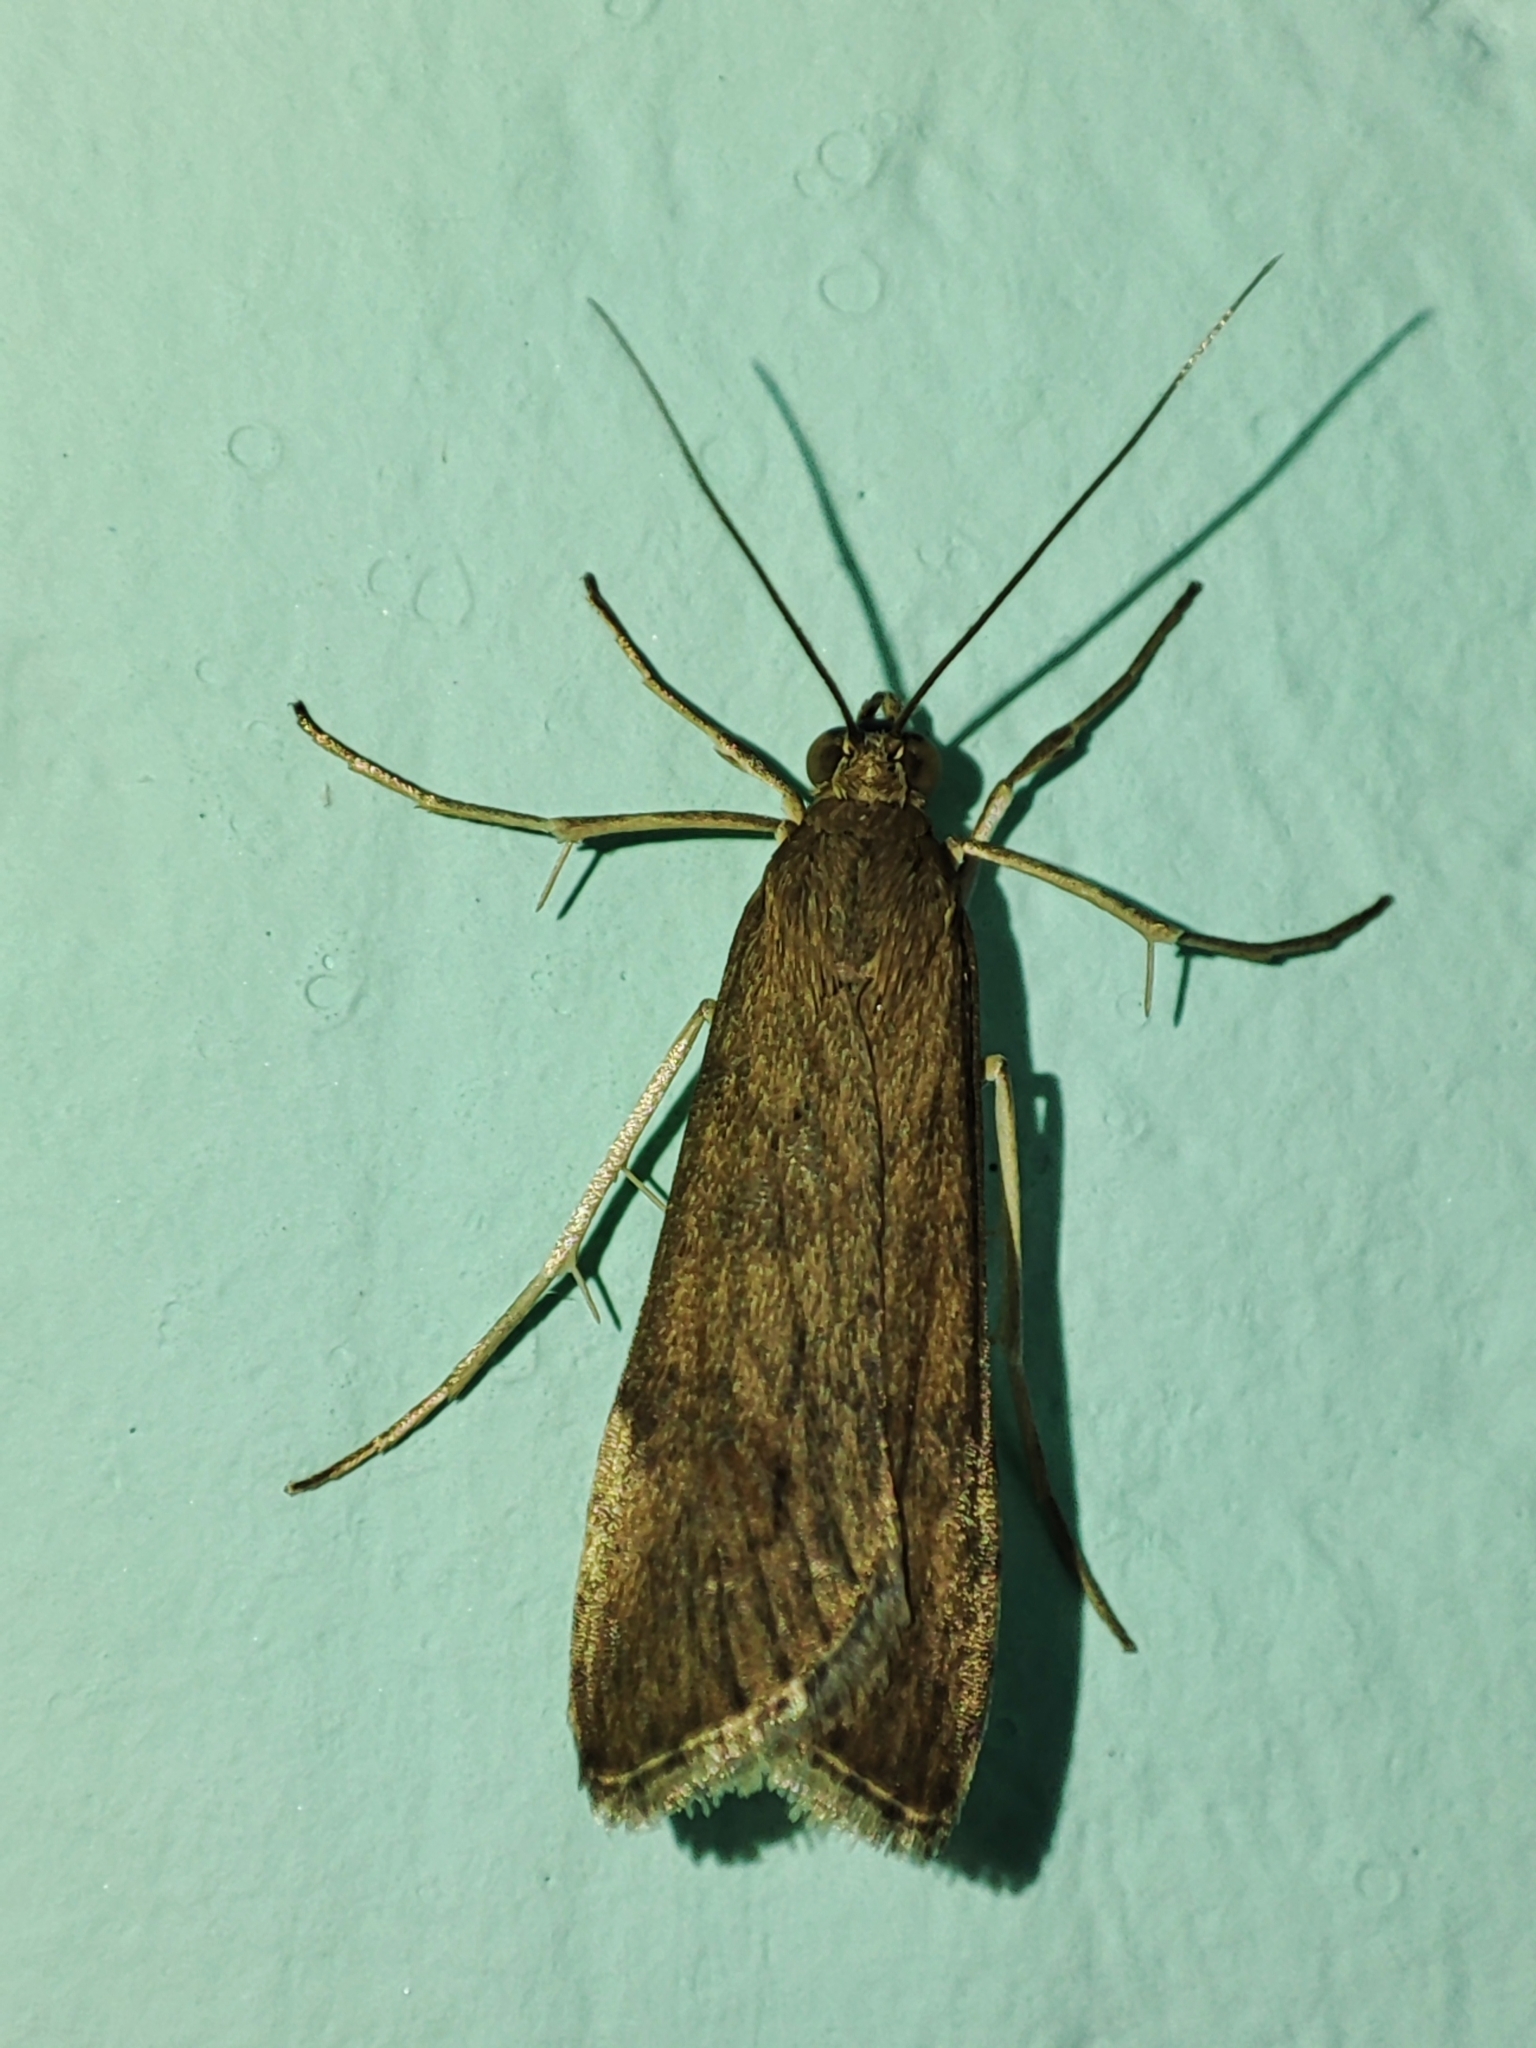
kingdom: Animalia
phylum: Arthropoda
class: Insecta
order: Lepidoptera
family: Crambidae
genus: Nomophila
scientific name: Nomophila noctuella
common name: Rush veneer
